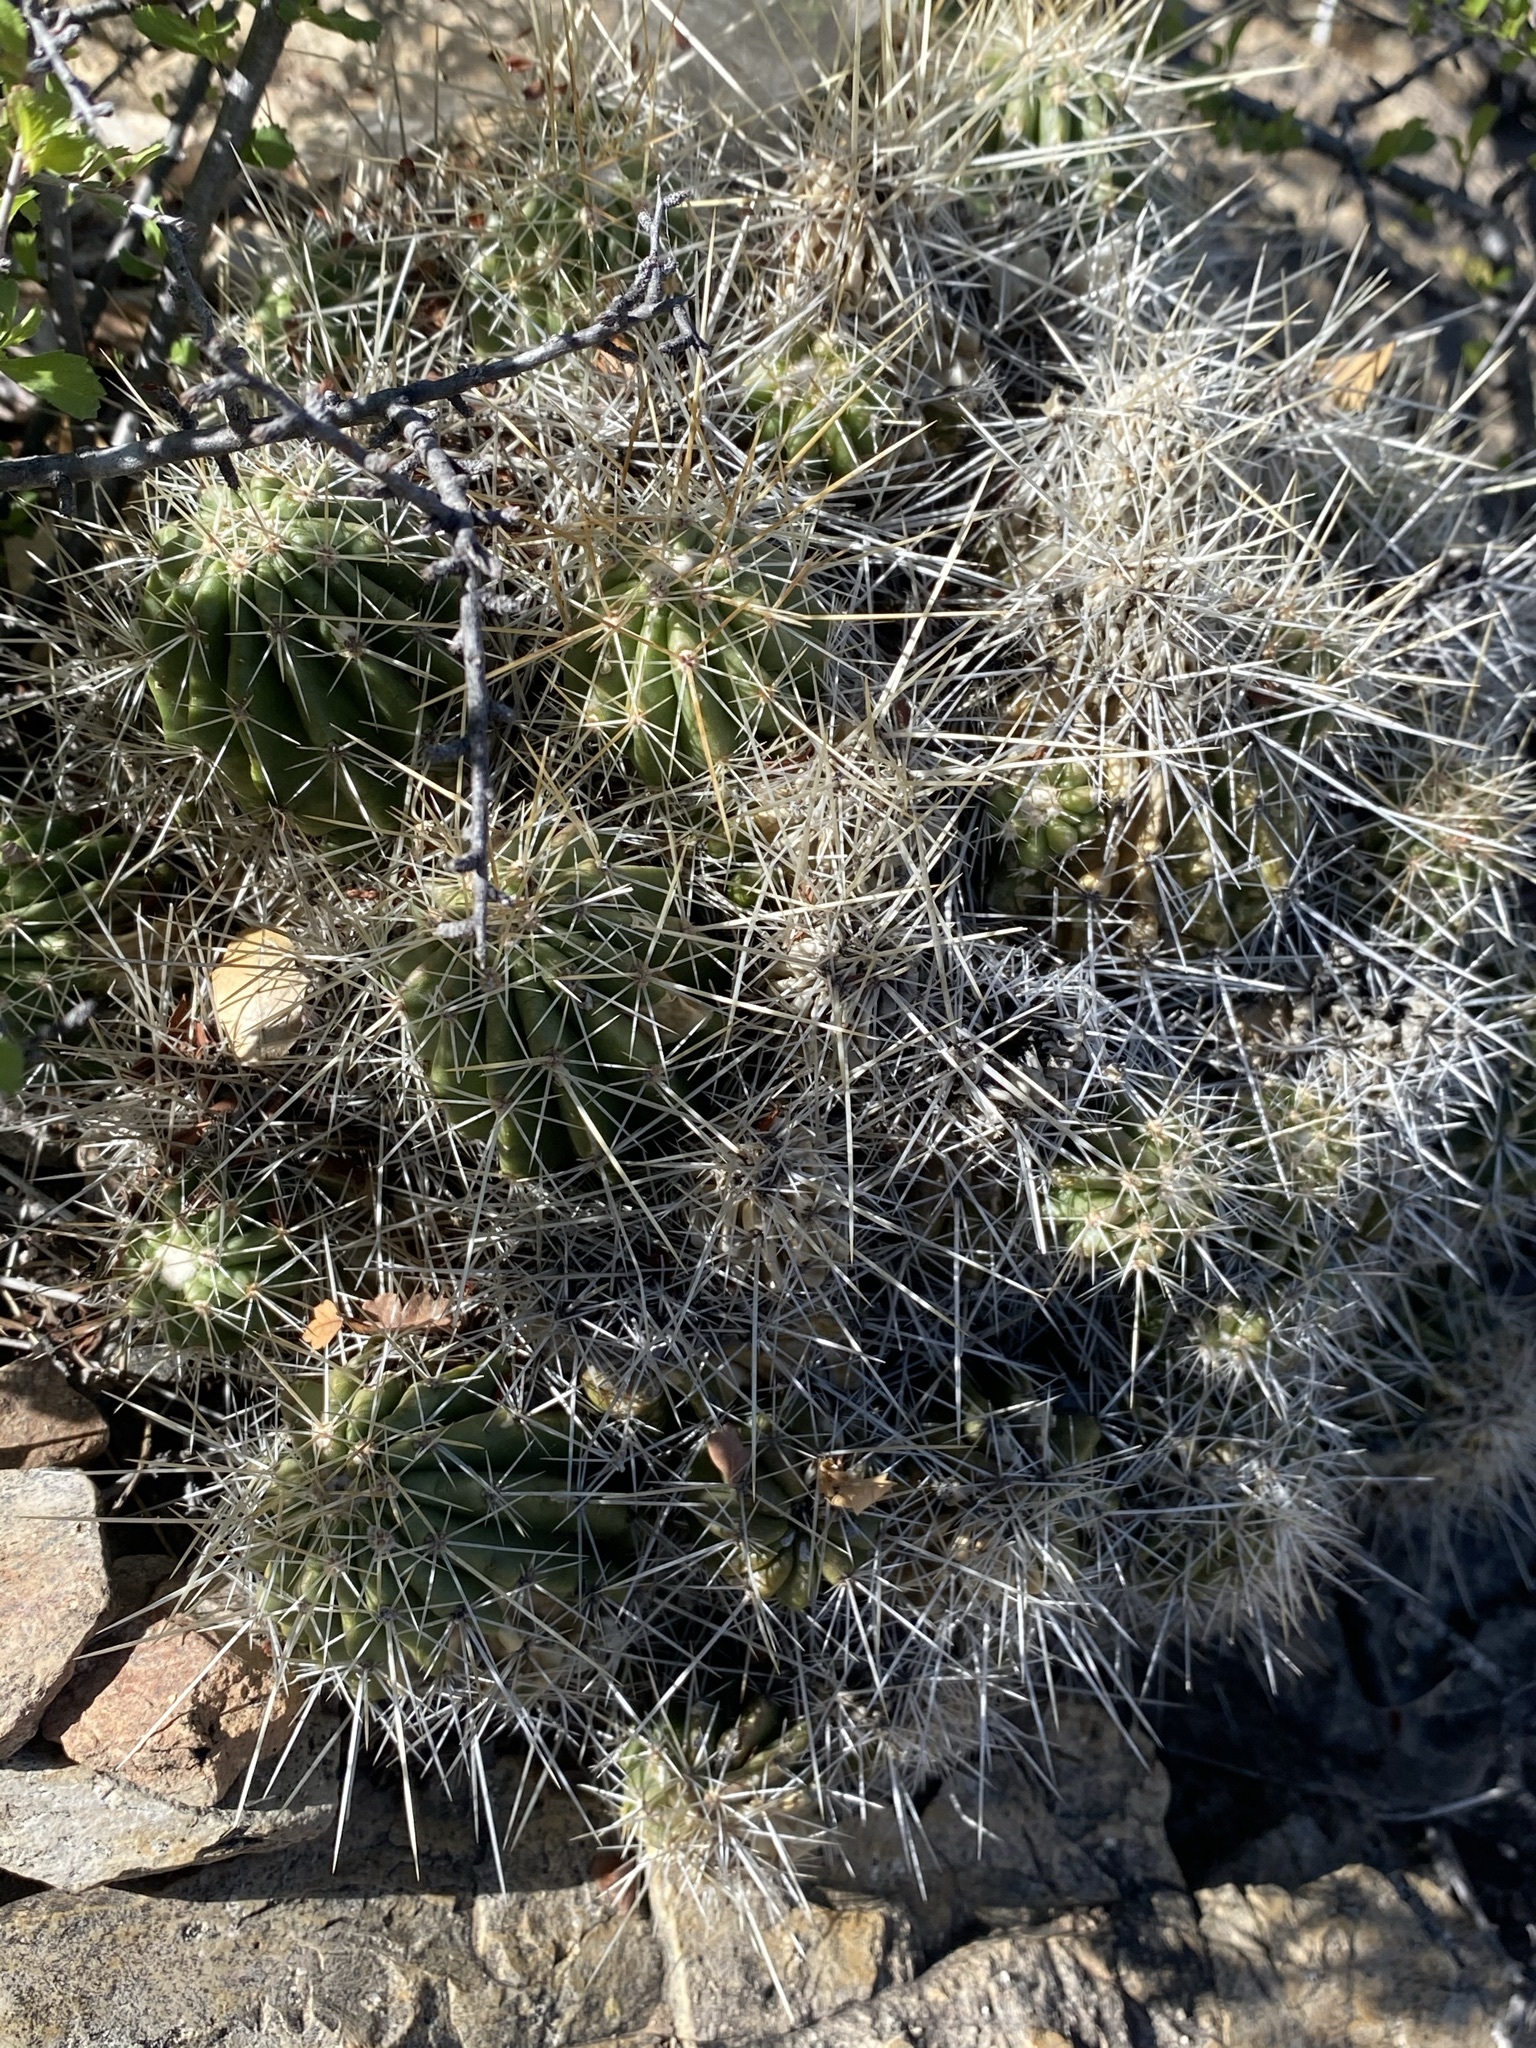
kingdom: Plantae
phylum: Tracheophyta
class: Magnoliopsida
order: Caryophyllales
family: Cactaceae
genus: Echinocereus
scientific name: Echinocereus stramineus
